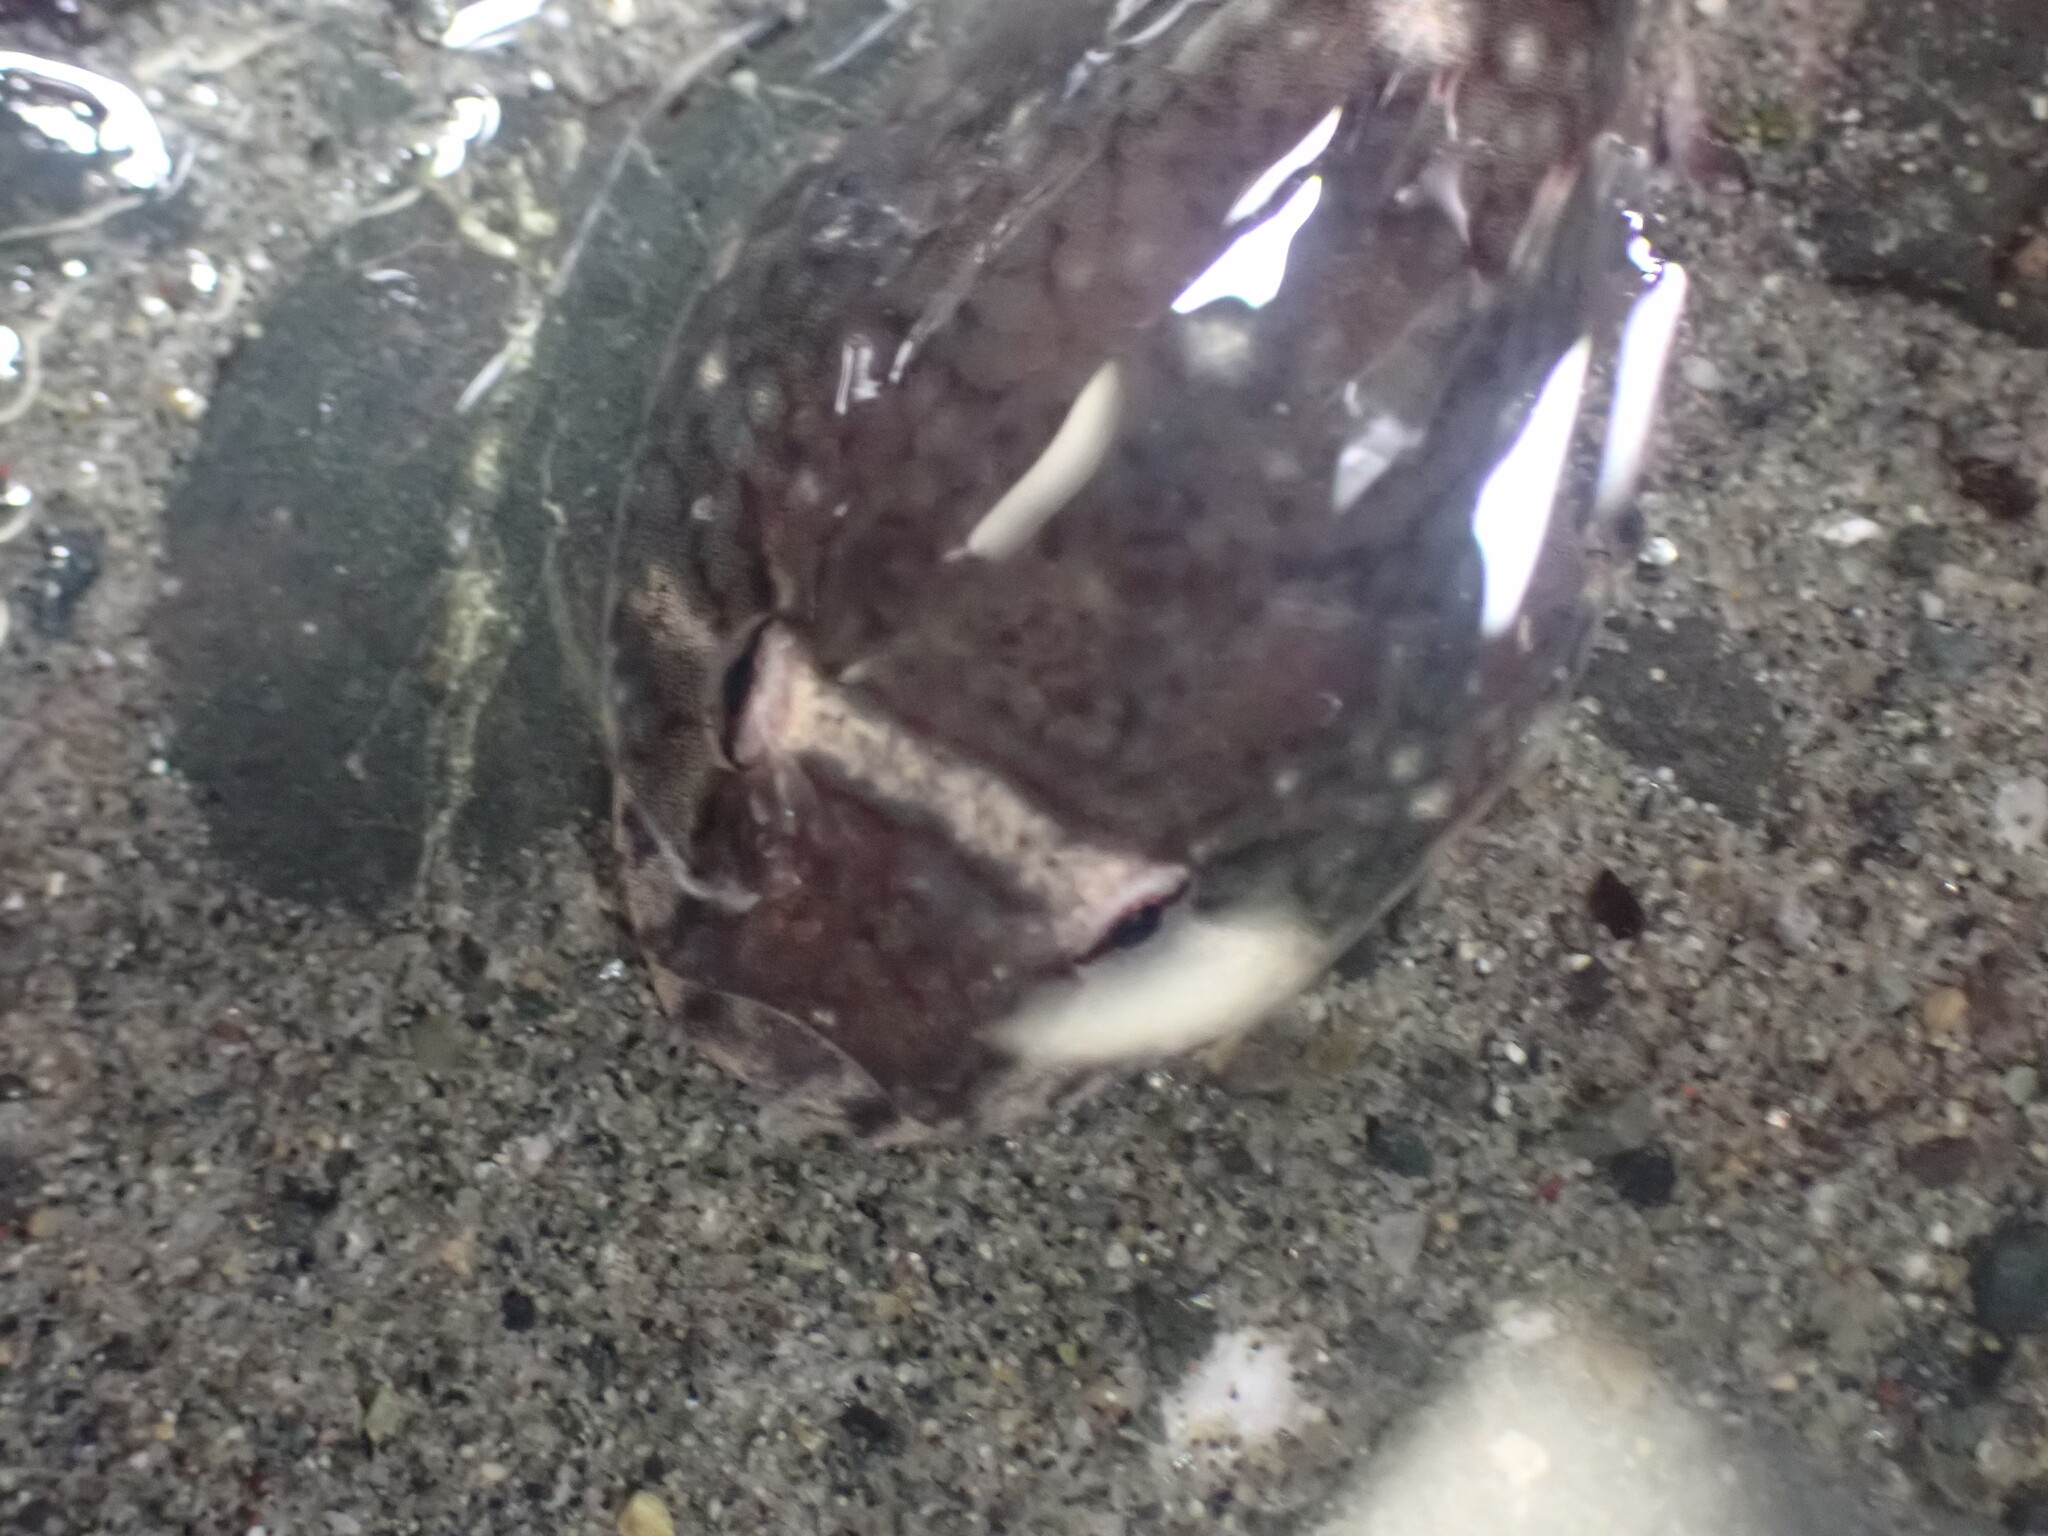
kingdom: Animalia
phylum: Chordata
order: Gobiesociformes
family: Gobiesocidae
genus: Gobiesox
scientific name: Gobiesox maeandricus
